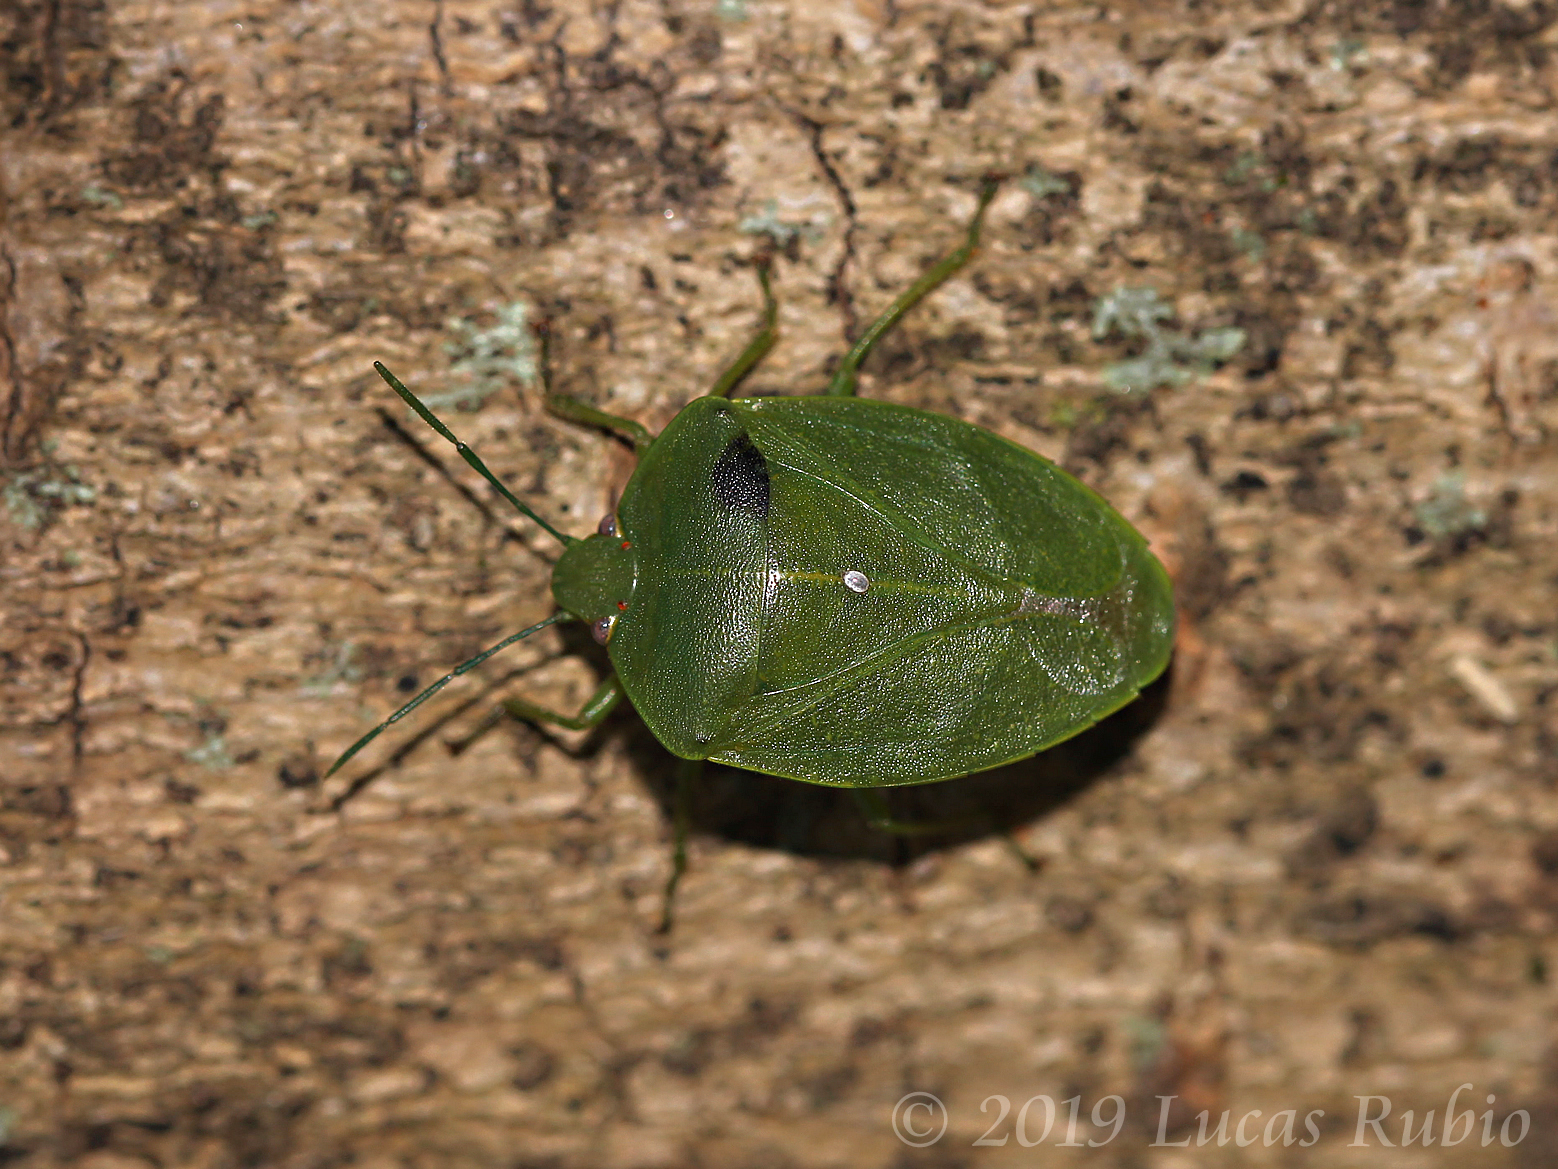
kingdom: Animalia
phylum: Arthropoda
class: Insecta
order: Hemiptera
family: Pentatomidae
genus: Chinavia
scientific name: Chinavia
